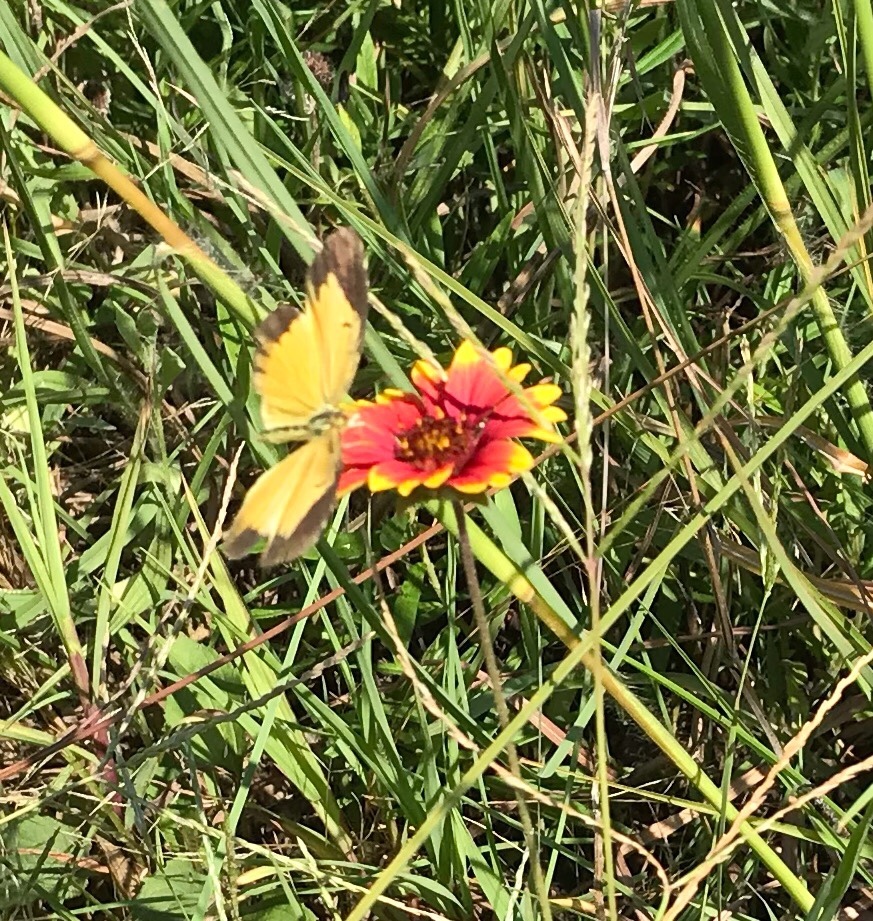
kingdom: Animalia
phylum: Arthropoda
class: Insecta
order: Lepidoptera
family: Pieridae
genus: Abaeis
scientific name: Abaeis nicippe
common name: Sleepy orange
